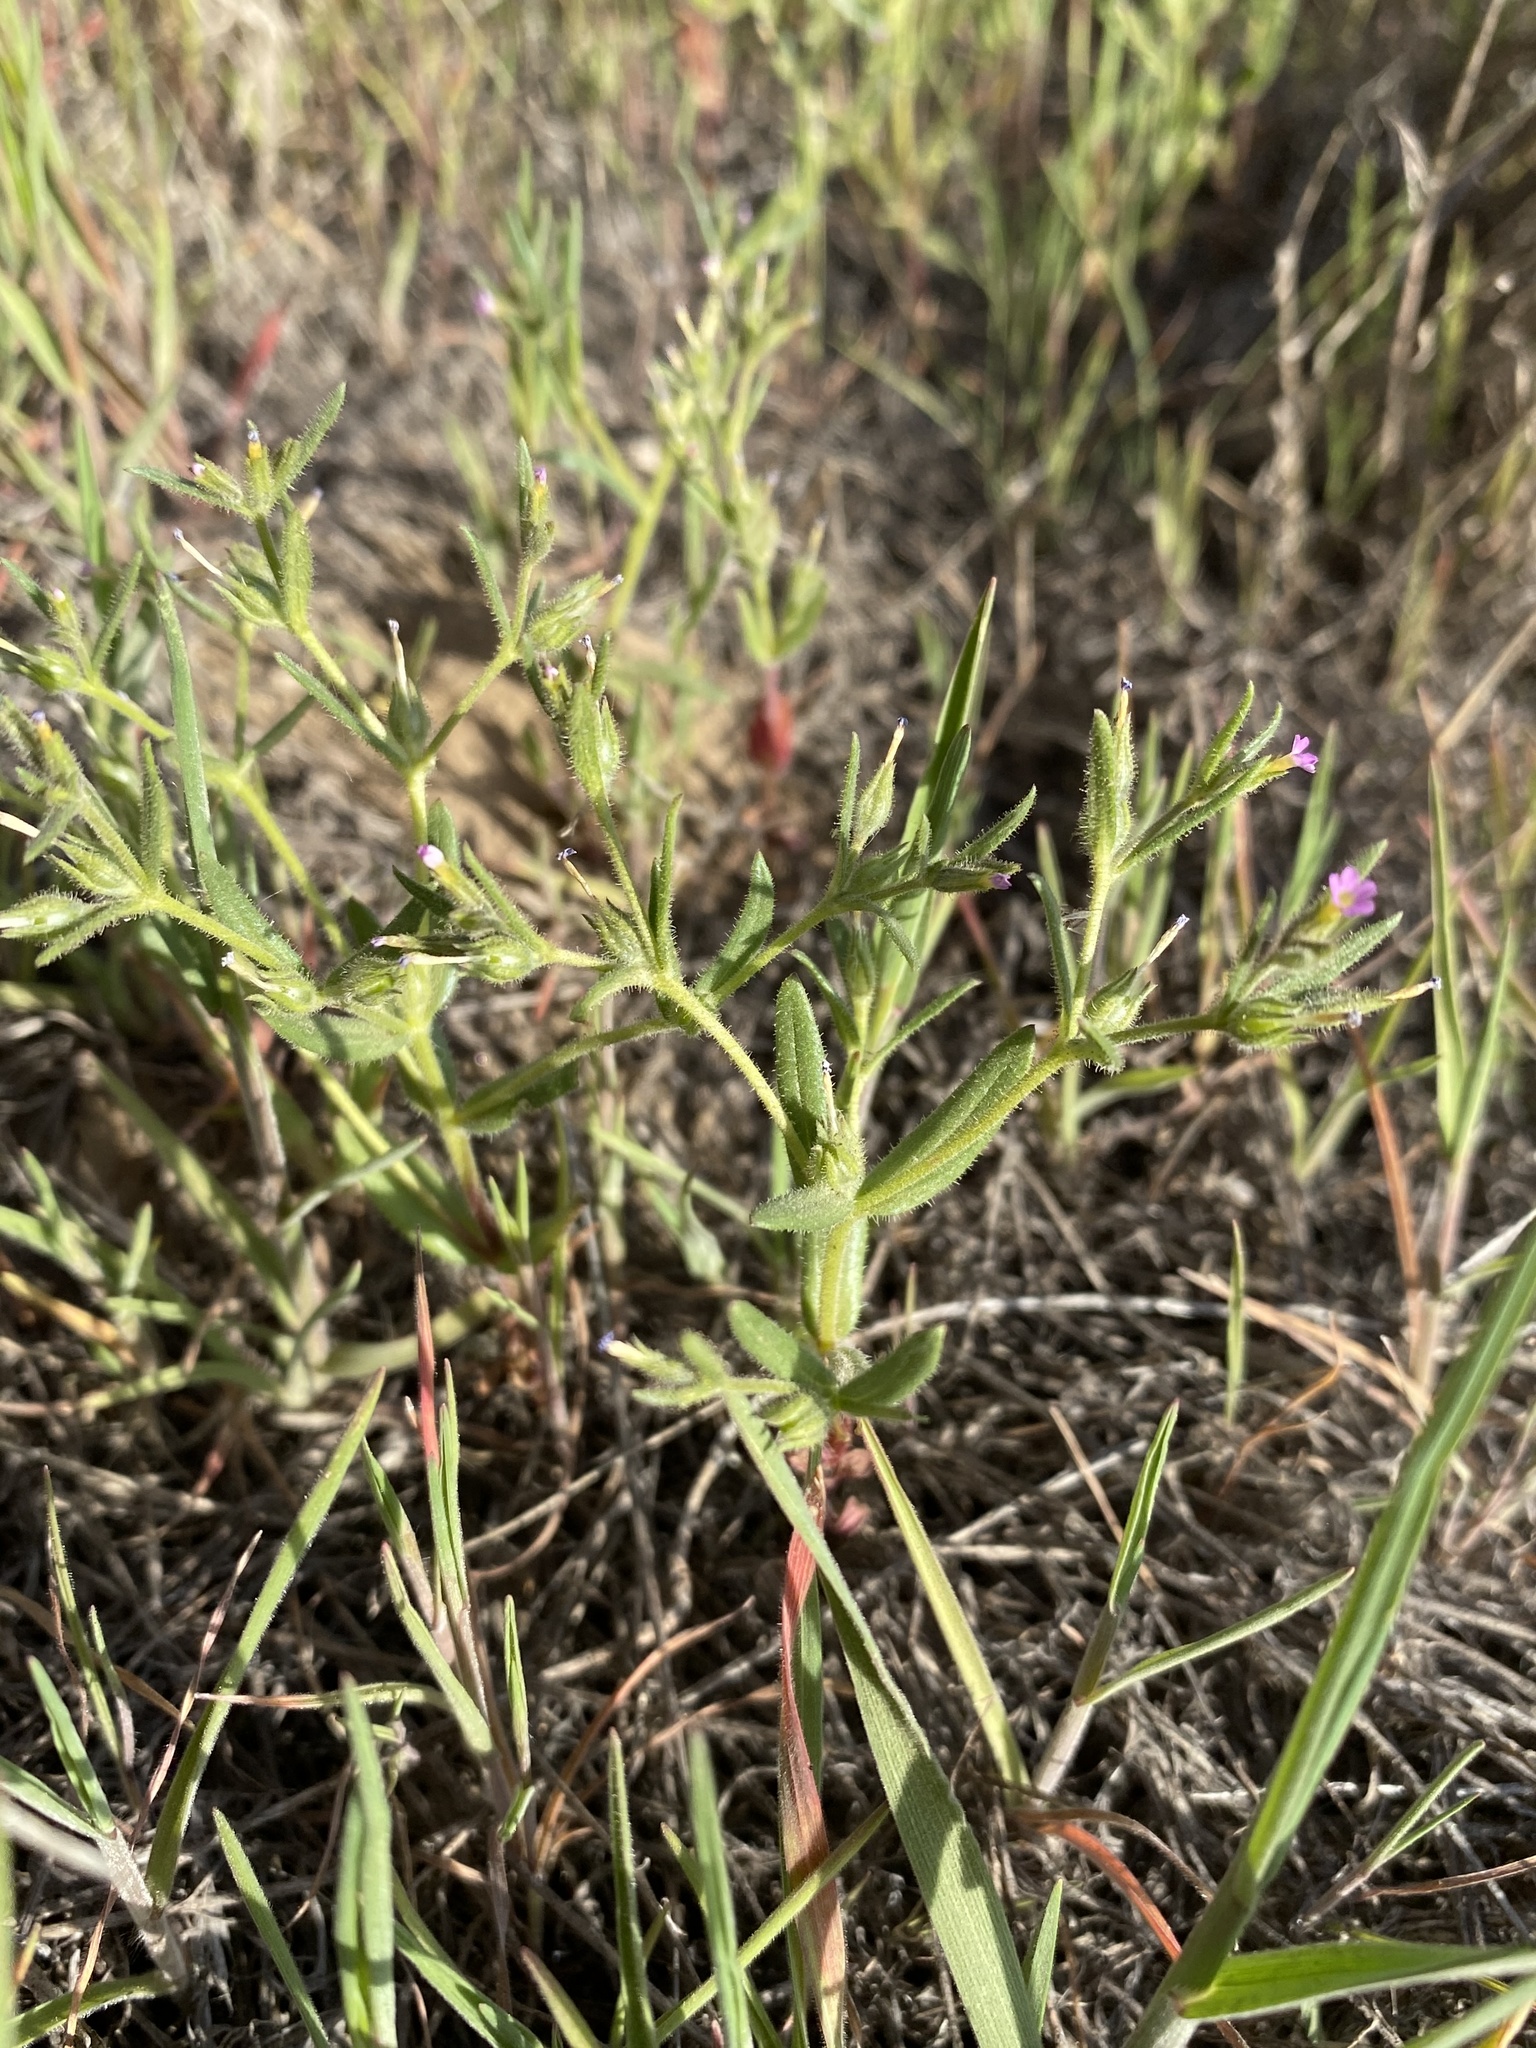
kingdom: Plantae
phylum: Tracheophyta
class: Magnoliopsida
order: Ericales
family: Polemoniaceae
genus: Phlox
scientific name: Phlox gracilis
